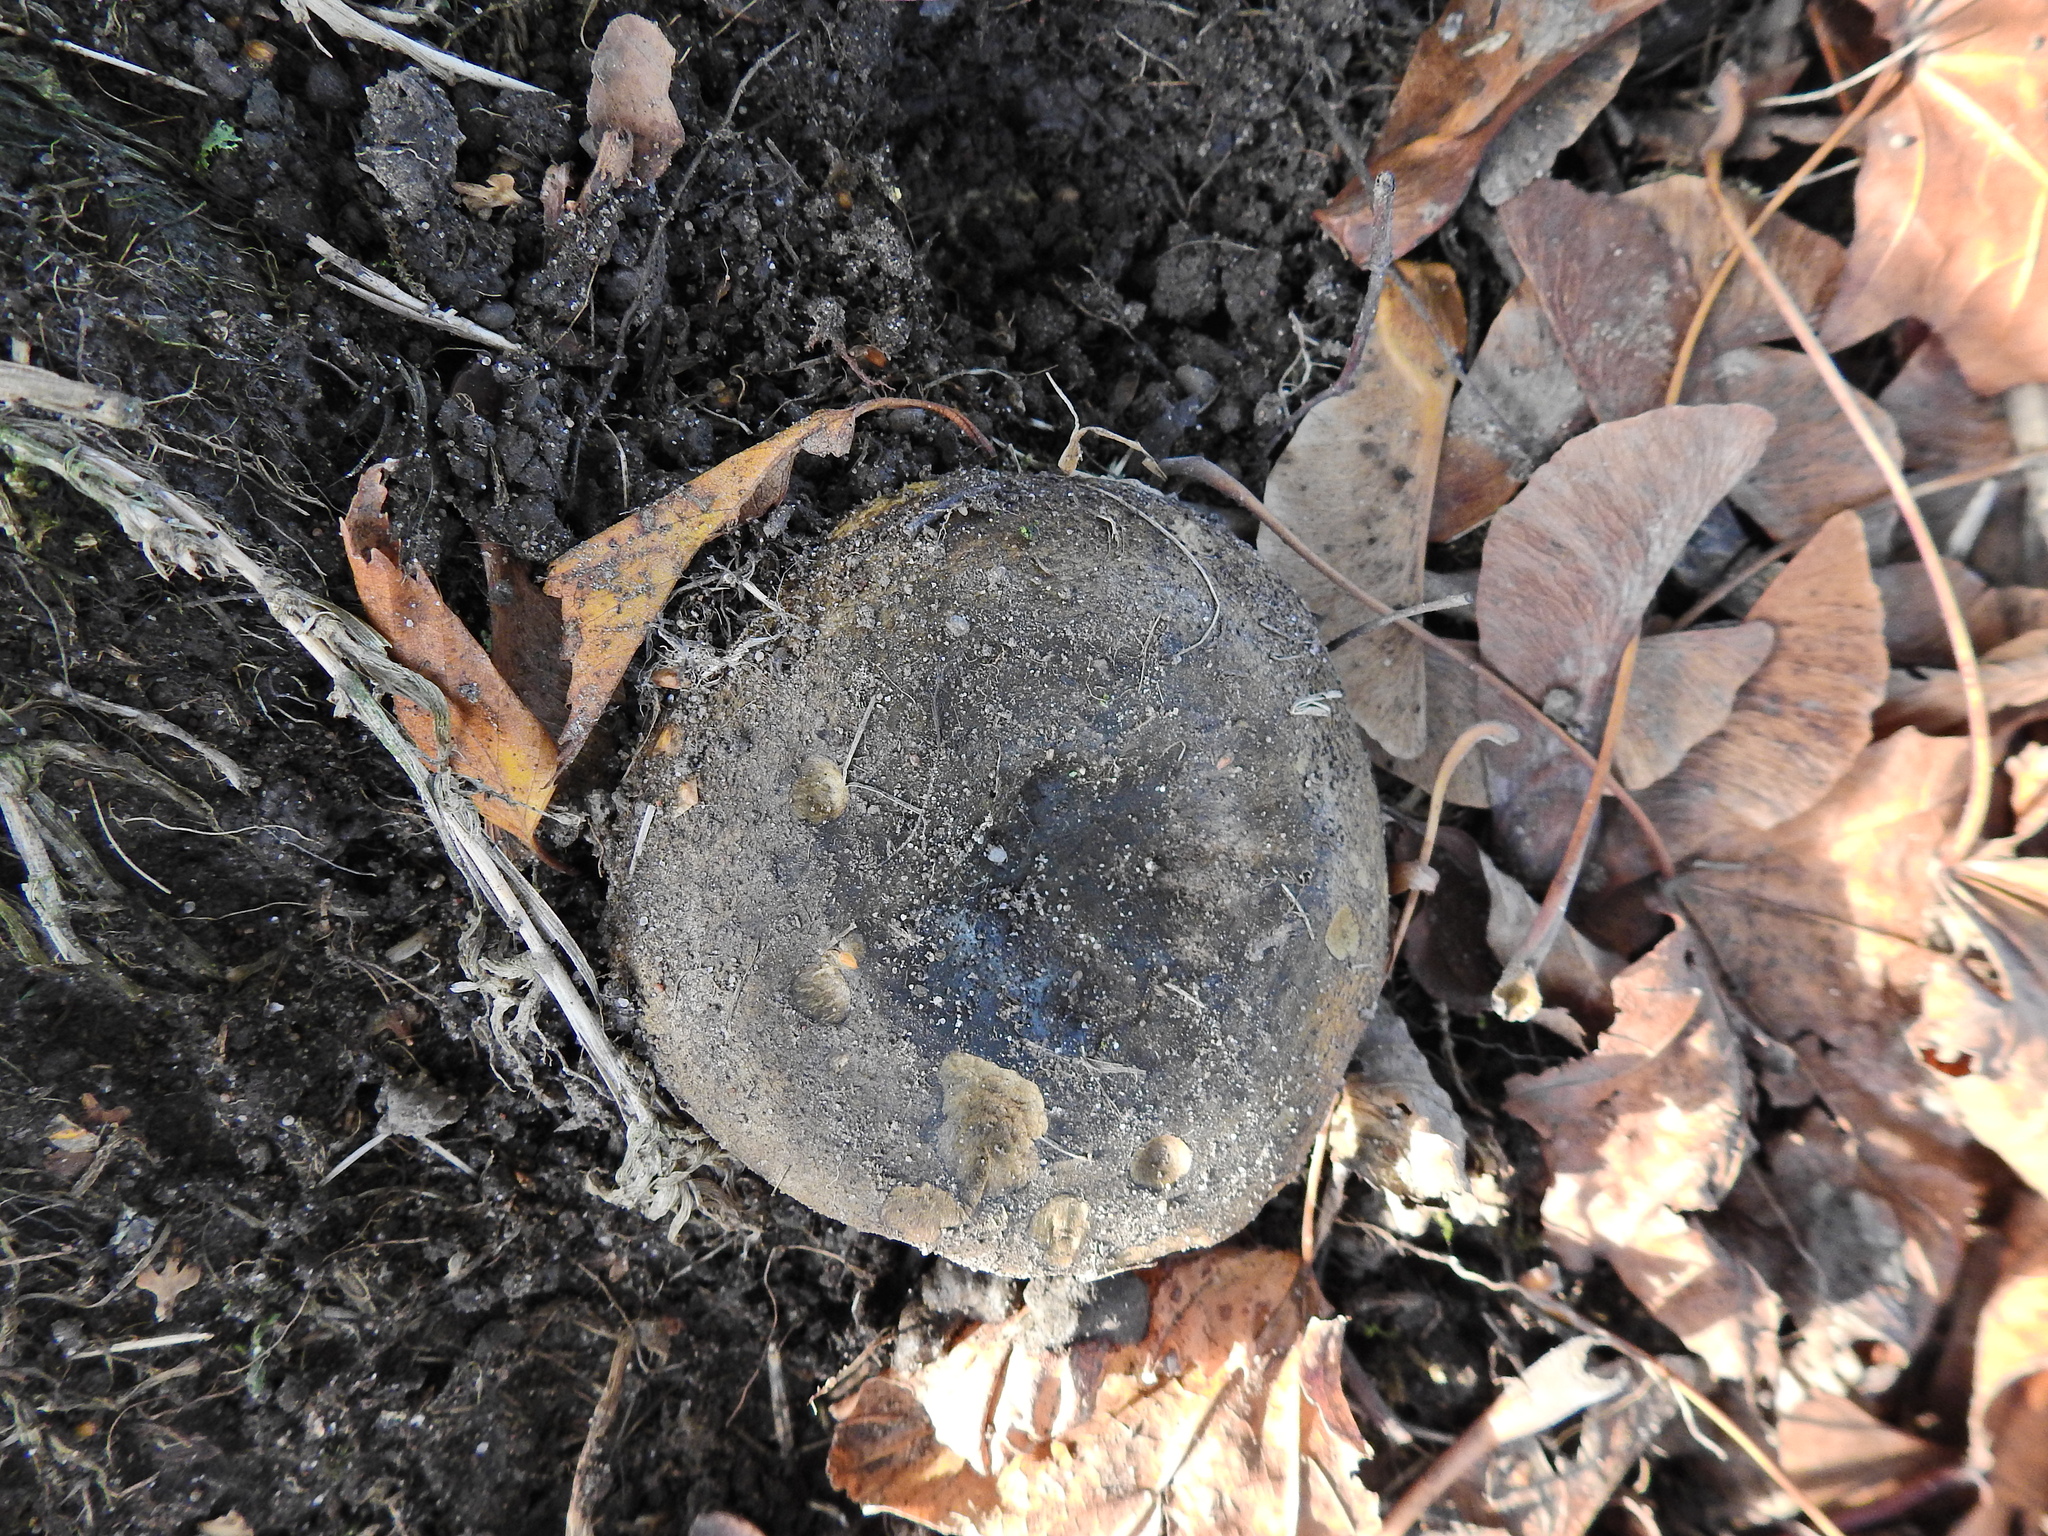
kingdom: Fungi
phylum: Basidiomycota
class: Agaricomycetes
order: Russulales
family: Russulaceae
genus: Lactarius
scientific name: Lactarius turpis
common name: Ugly milk-cap
